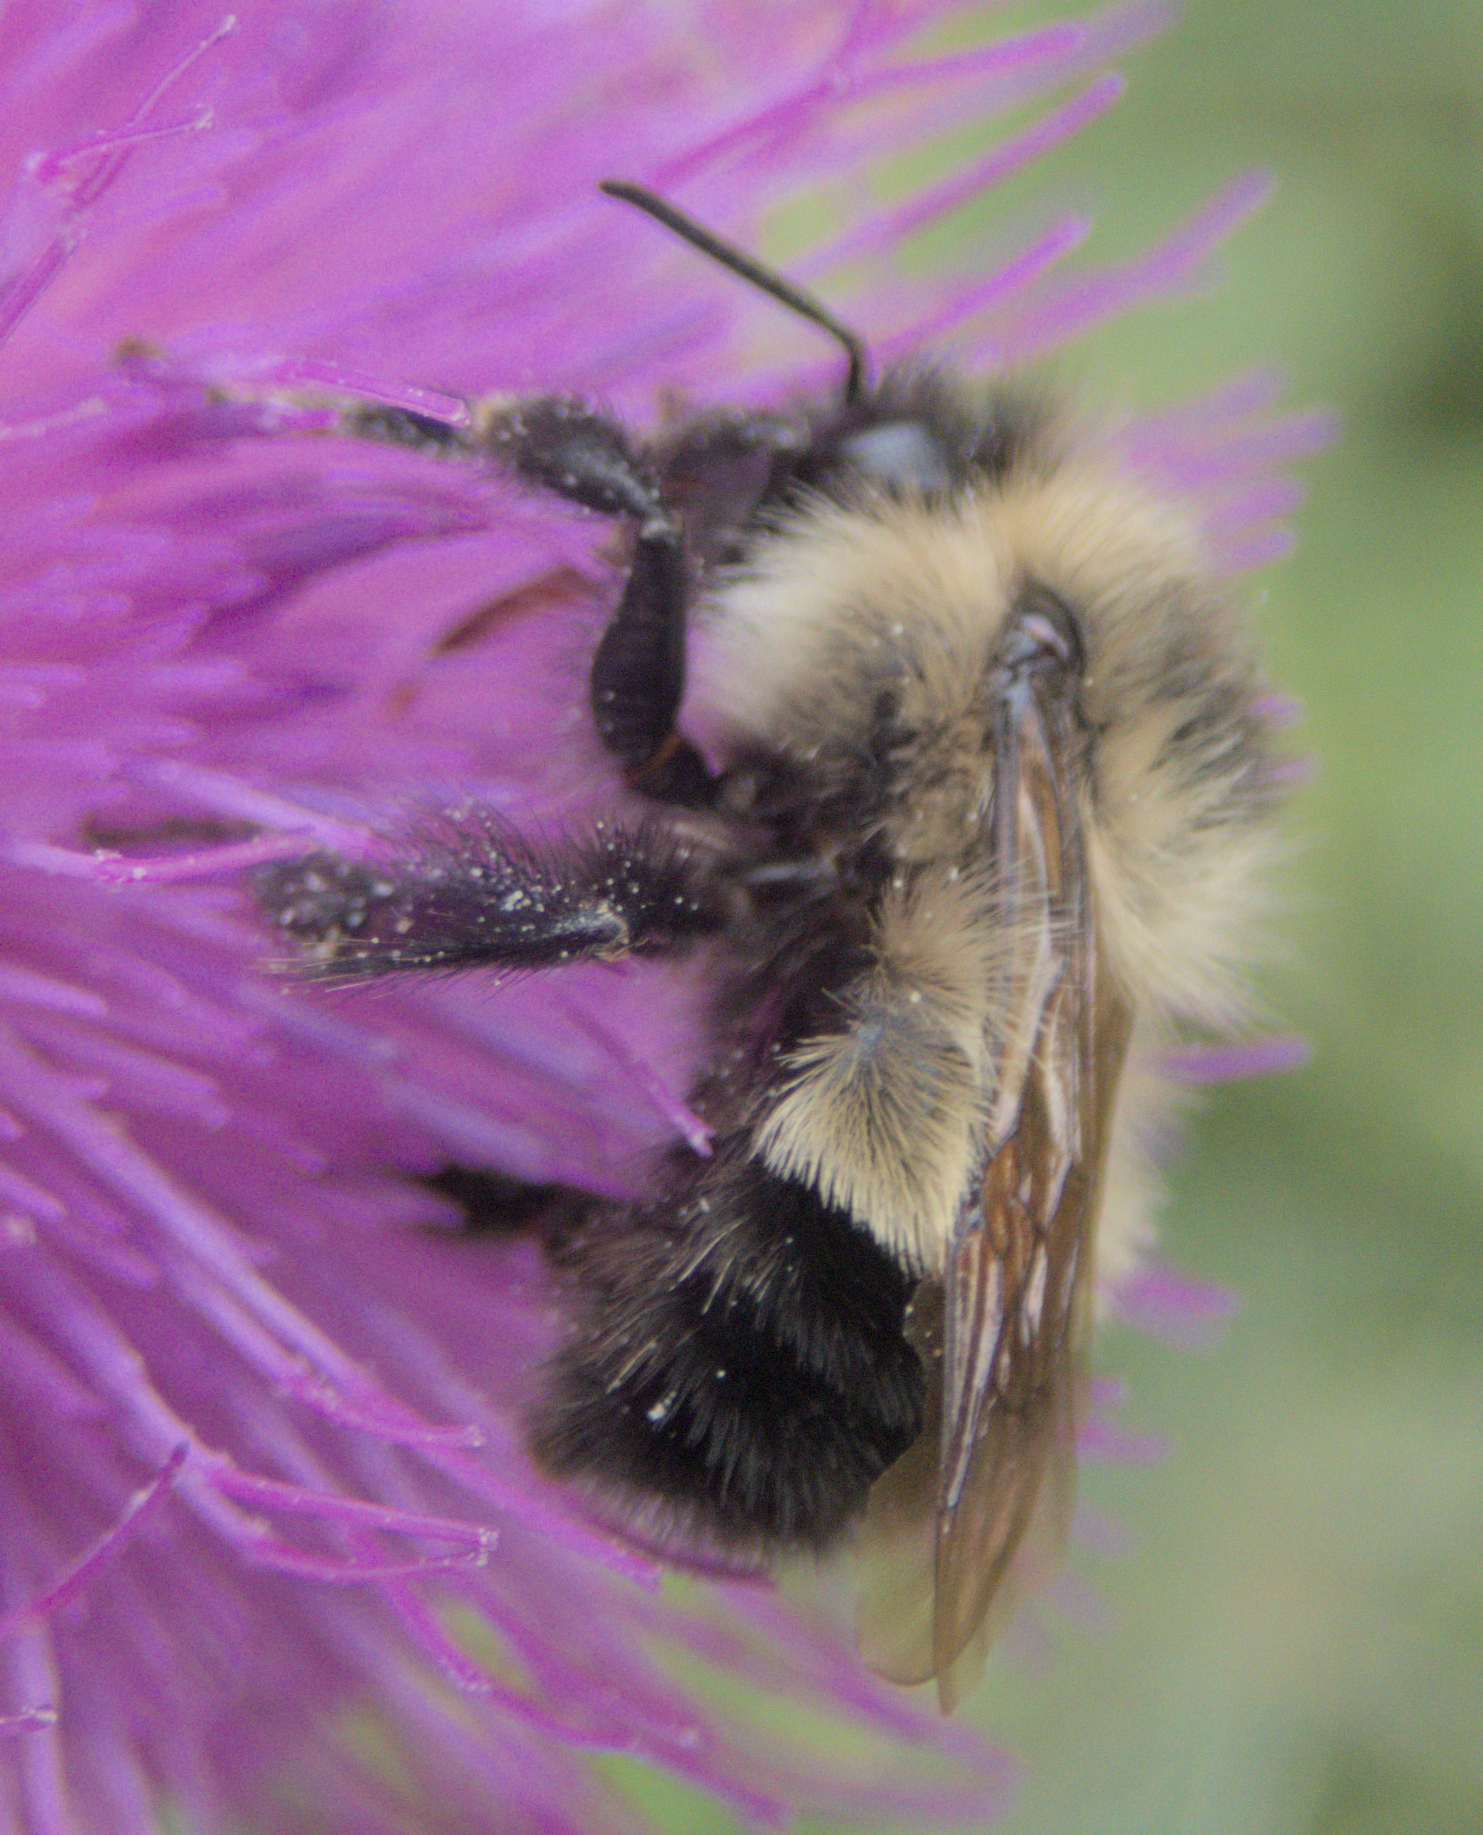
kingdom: Animalia
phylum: Arthropoda
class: Insecta
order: Hymenoptera
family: Apidae
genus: Pyrobombus
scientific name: Pyrobombus
